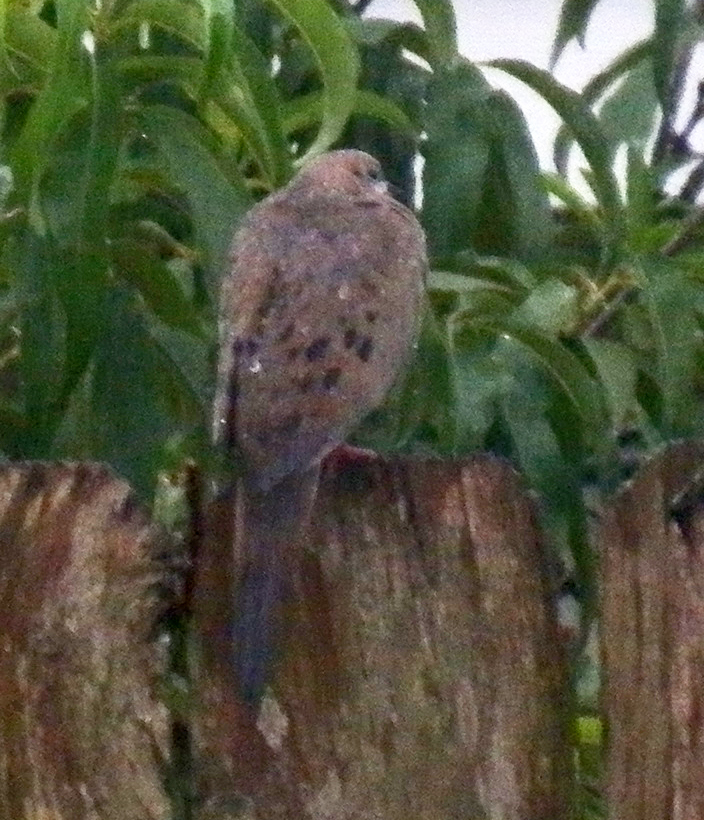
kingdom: Animalia
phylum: Chordata
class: Aves
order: Columbiformes
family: Columbidae
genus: Zenaida
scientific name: Zenaida macroura
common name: Mourning dove
